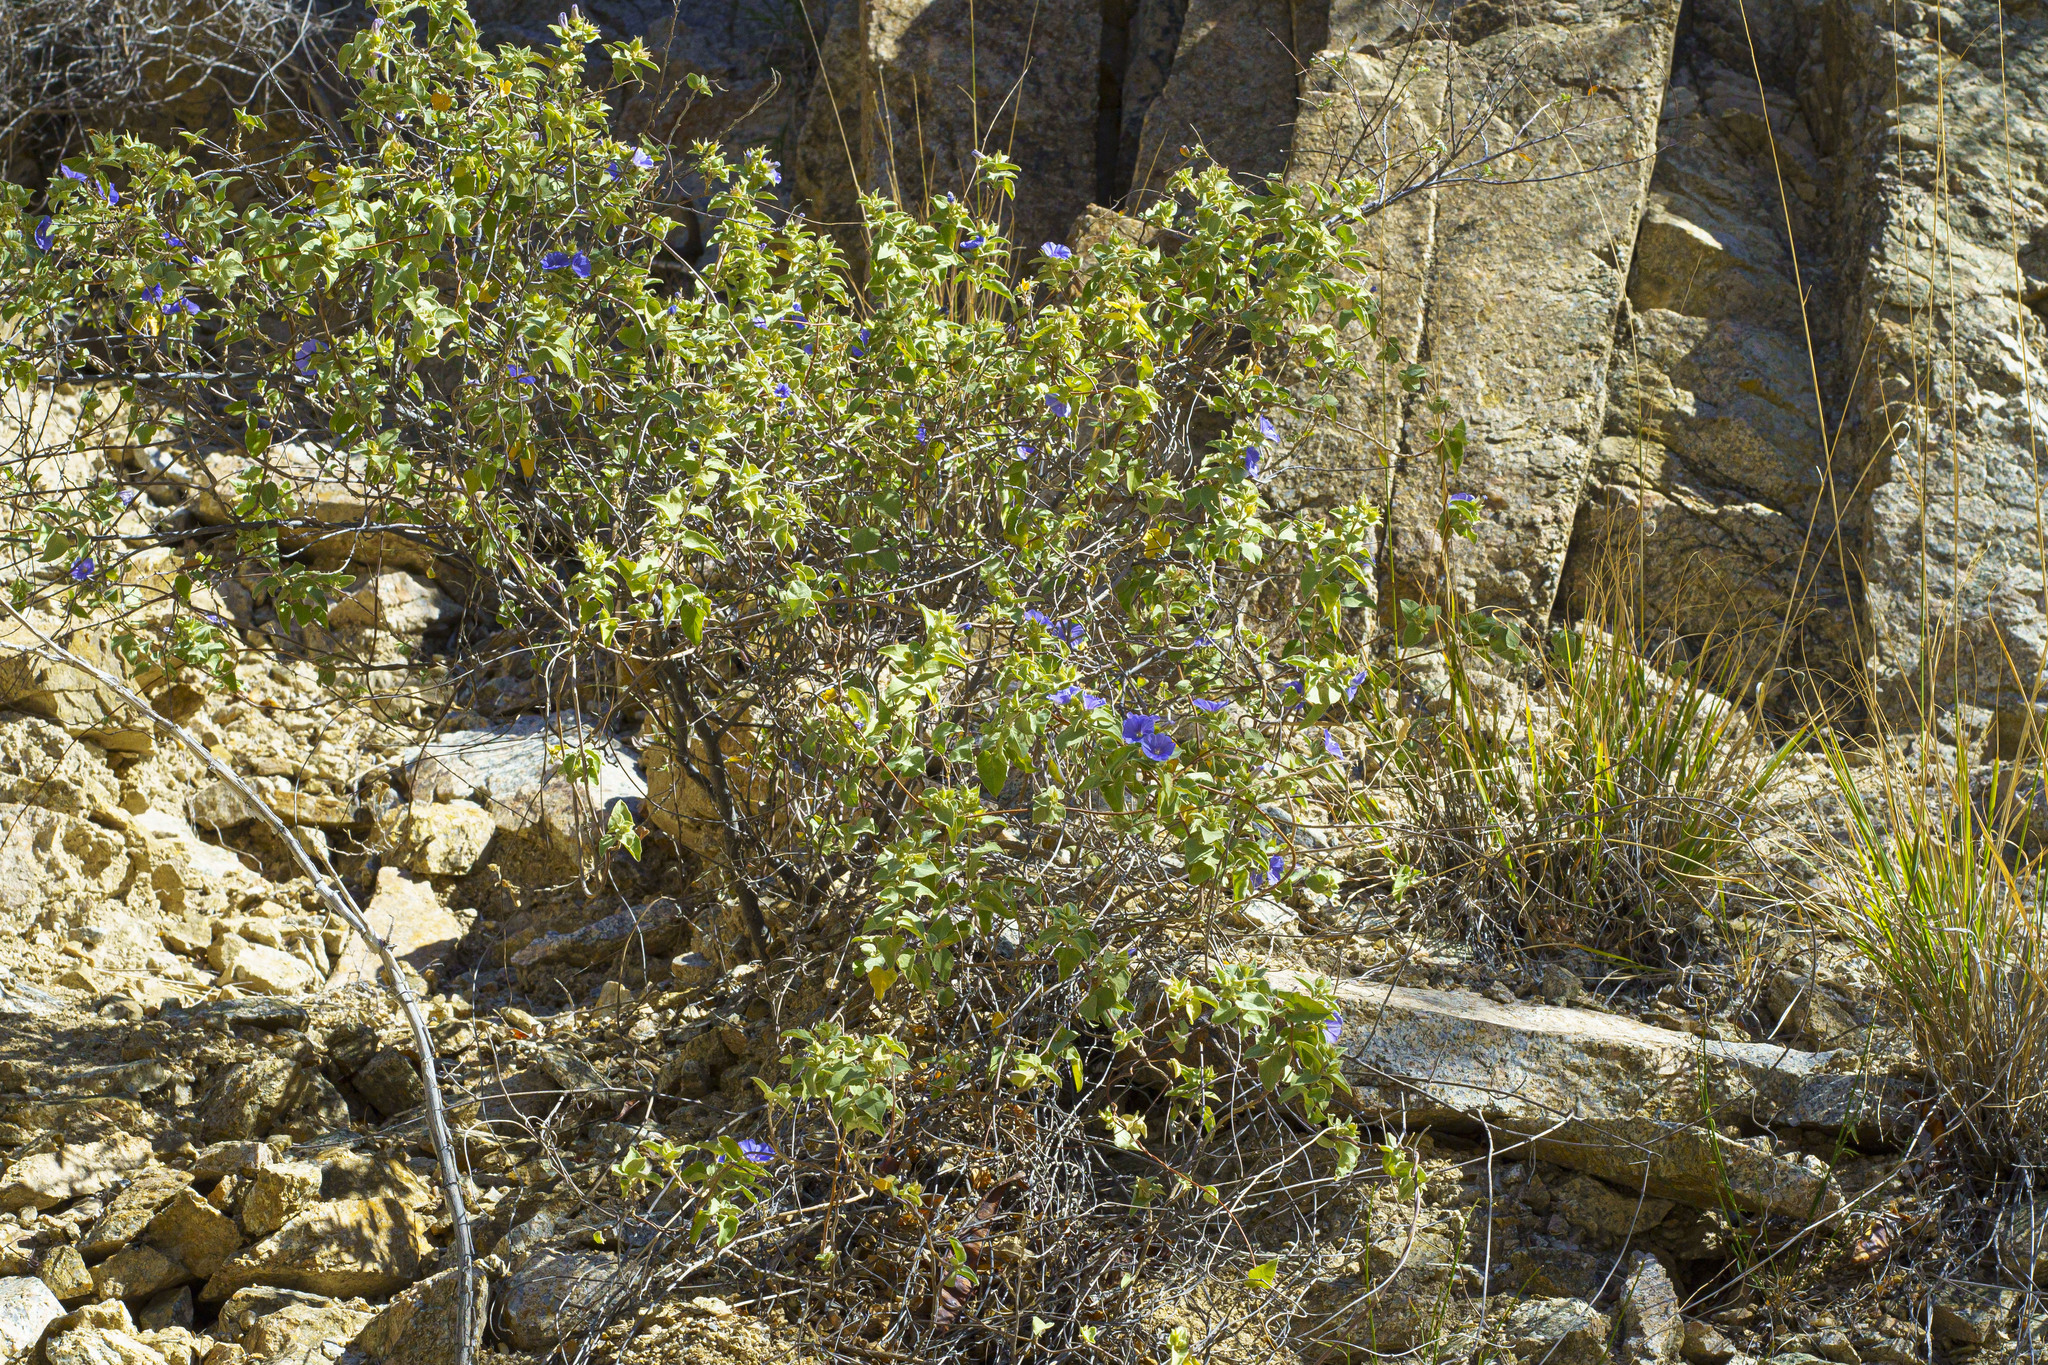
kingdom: Plantae
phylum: Tracheophyta
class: Magnoliopsida
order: Solanales
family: Convolvulaceae
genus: Jacquemontia
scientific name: Jacquemontia abutiloides
